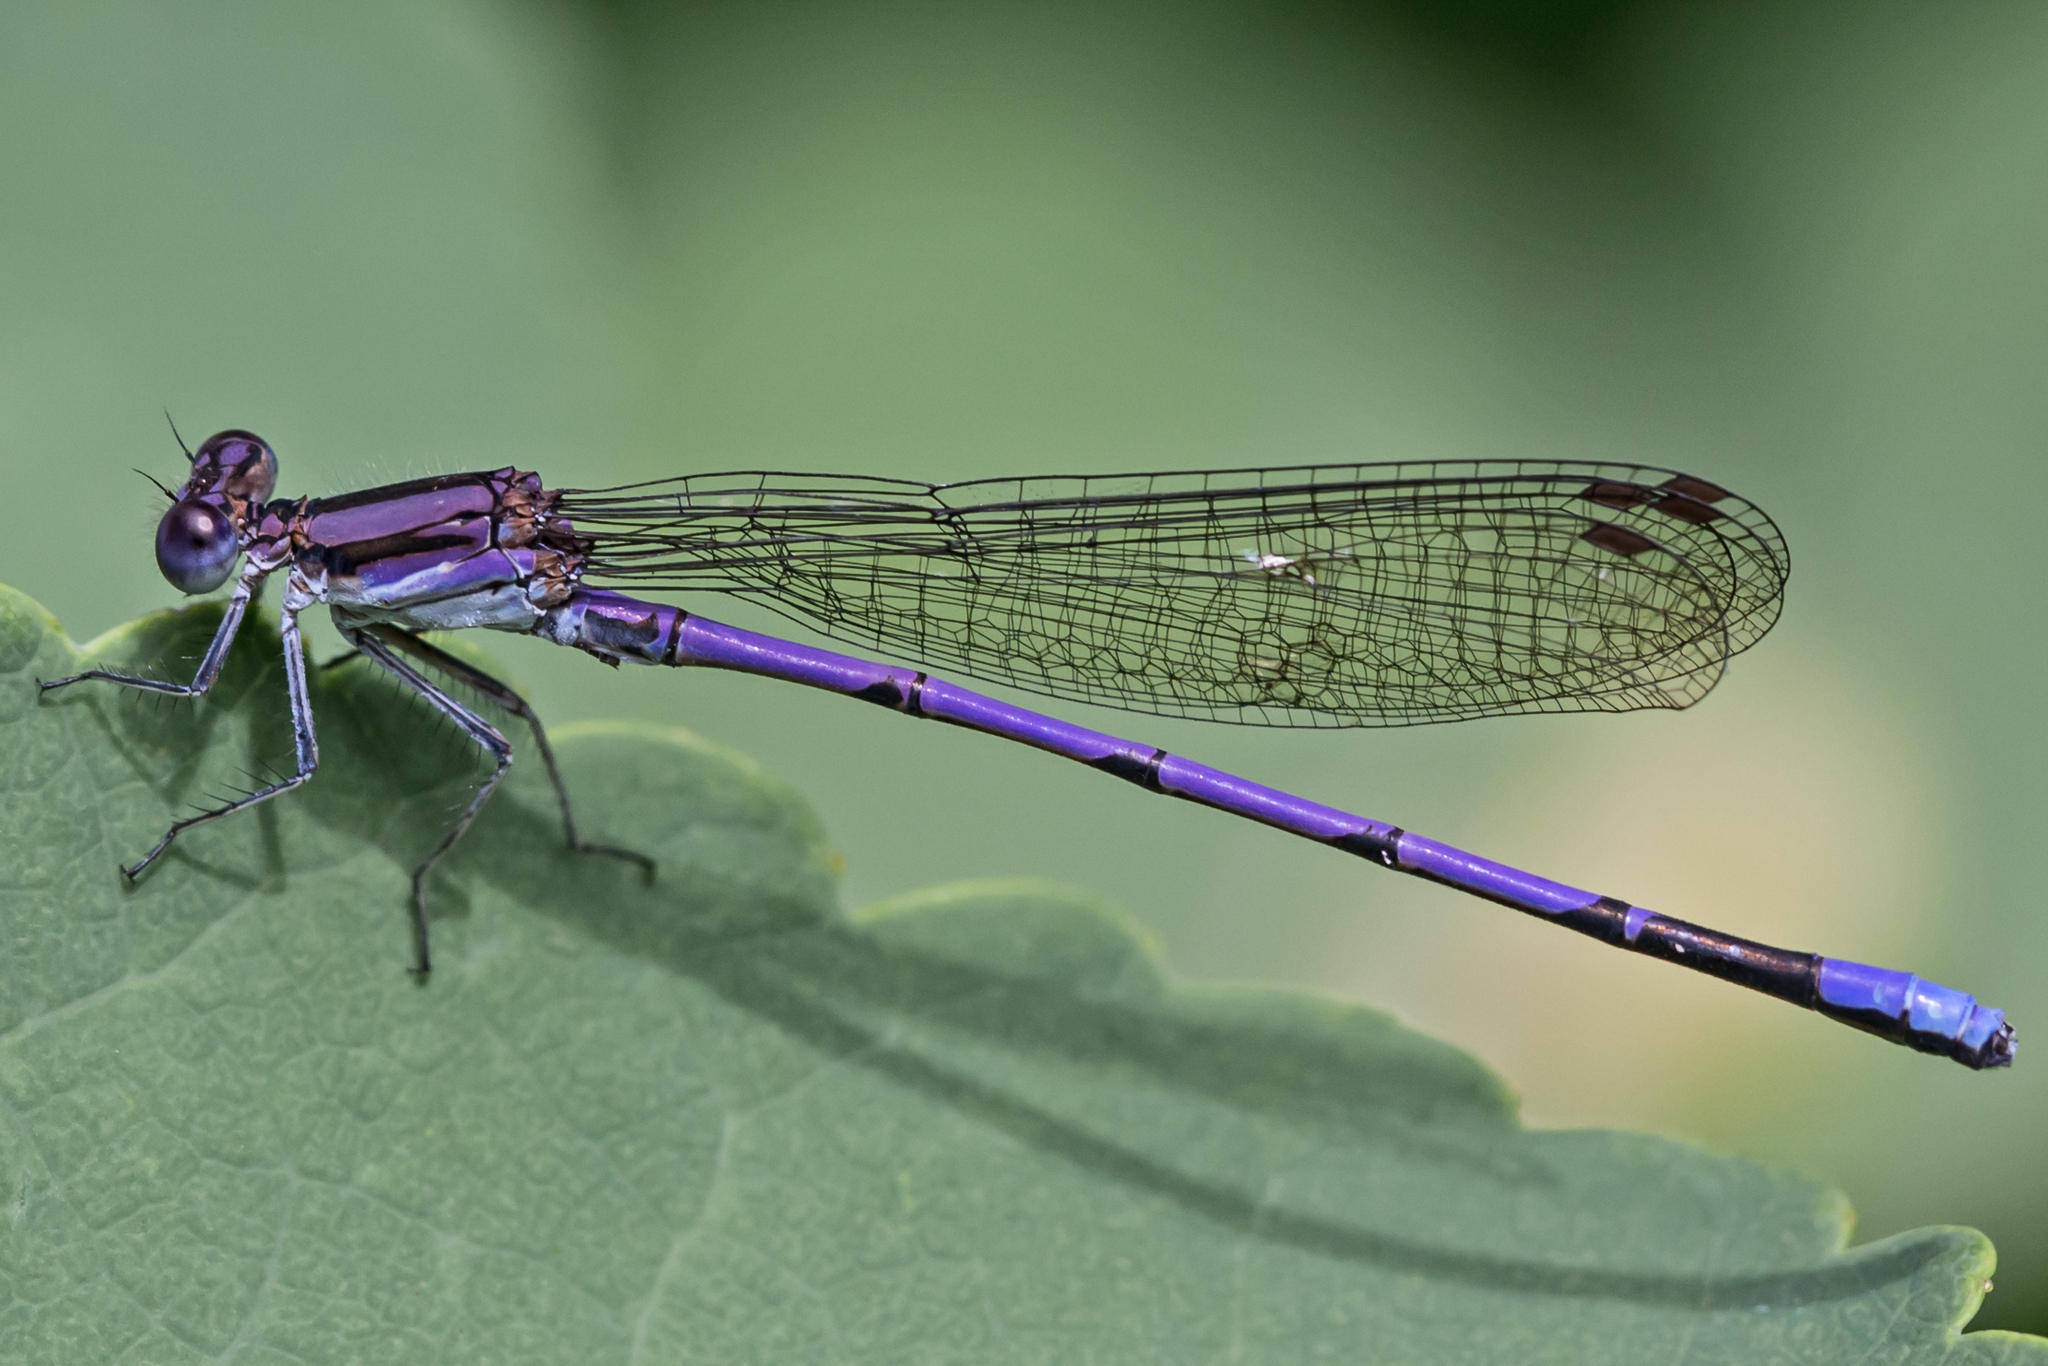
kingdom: Animalia
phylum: Arthropoda
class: Insecta
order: Odonata
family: Coenagrionidae
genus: Argia
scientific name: Argia fumipennis
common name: Variable dancer
